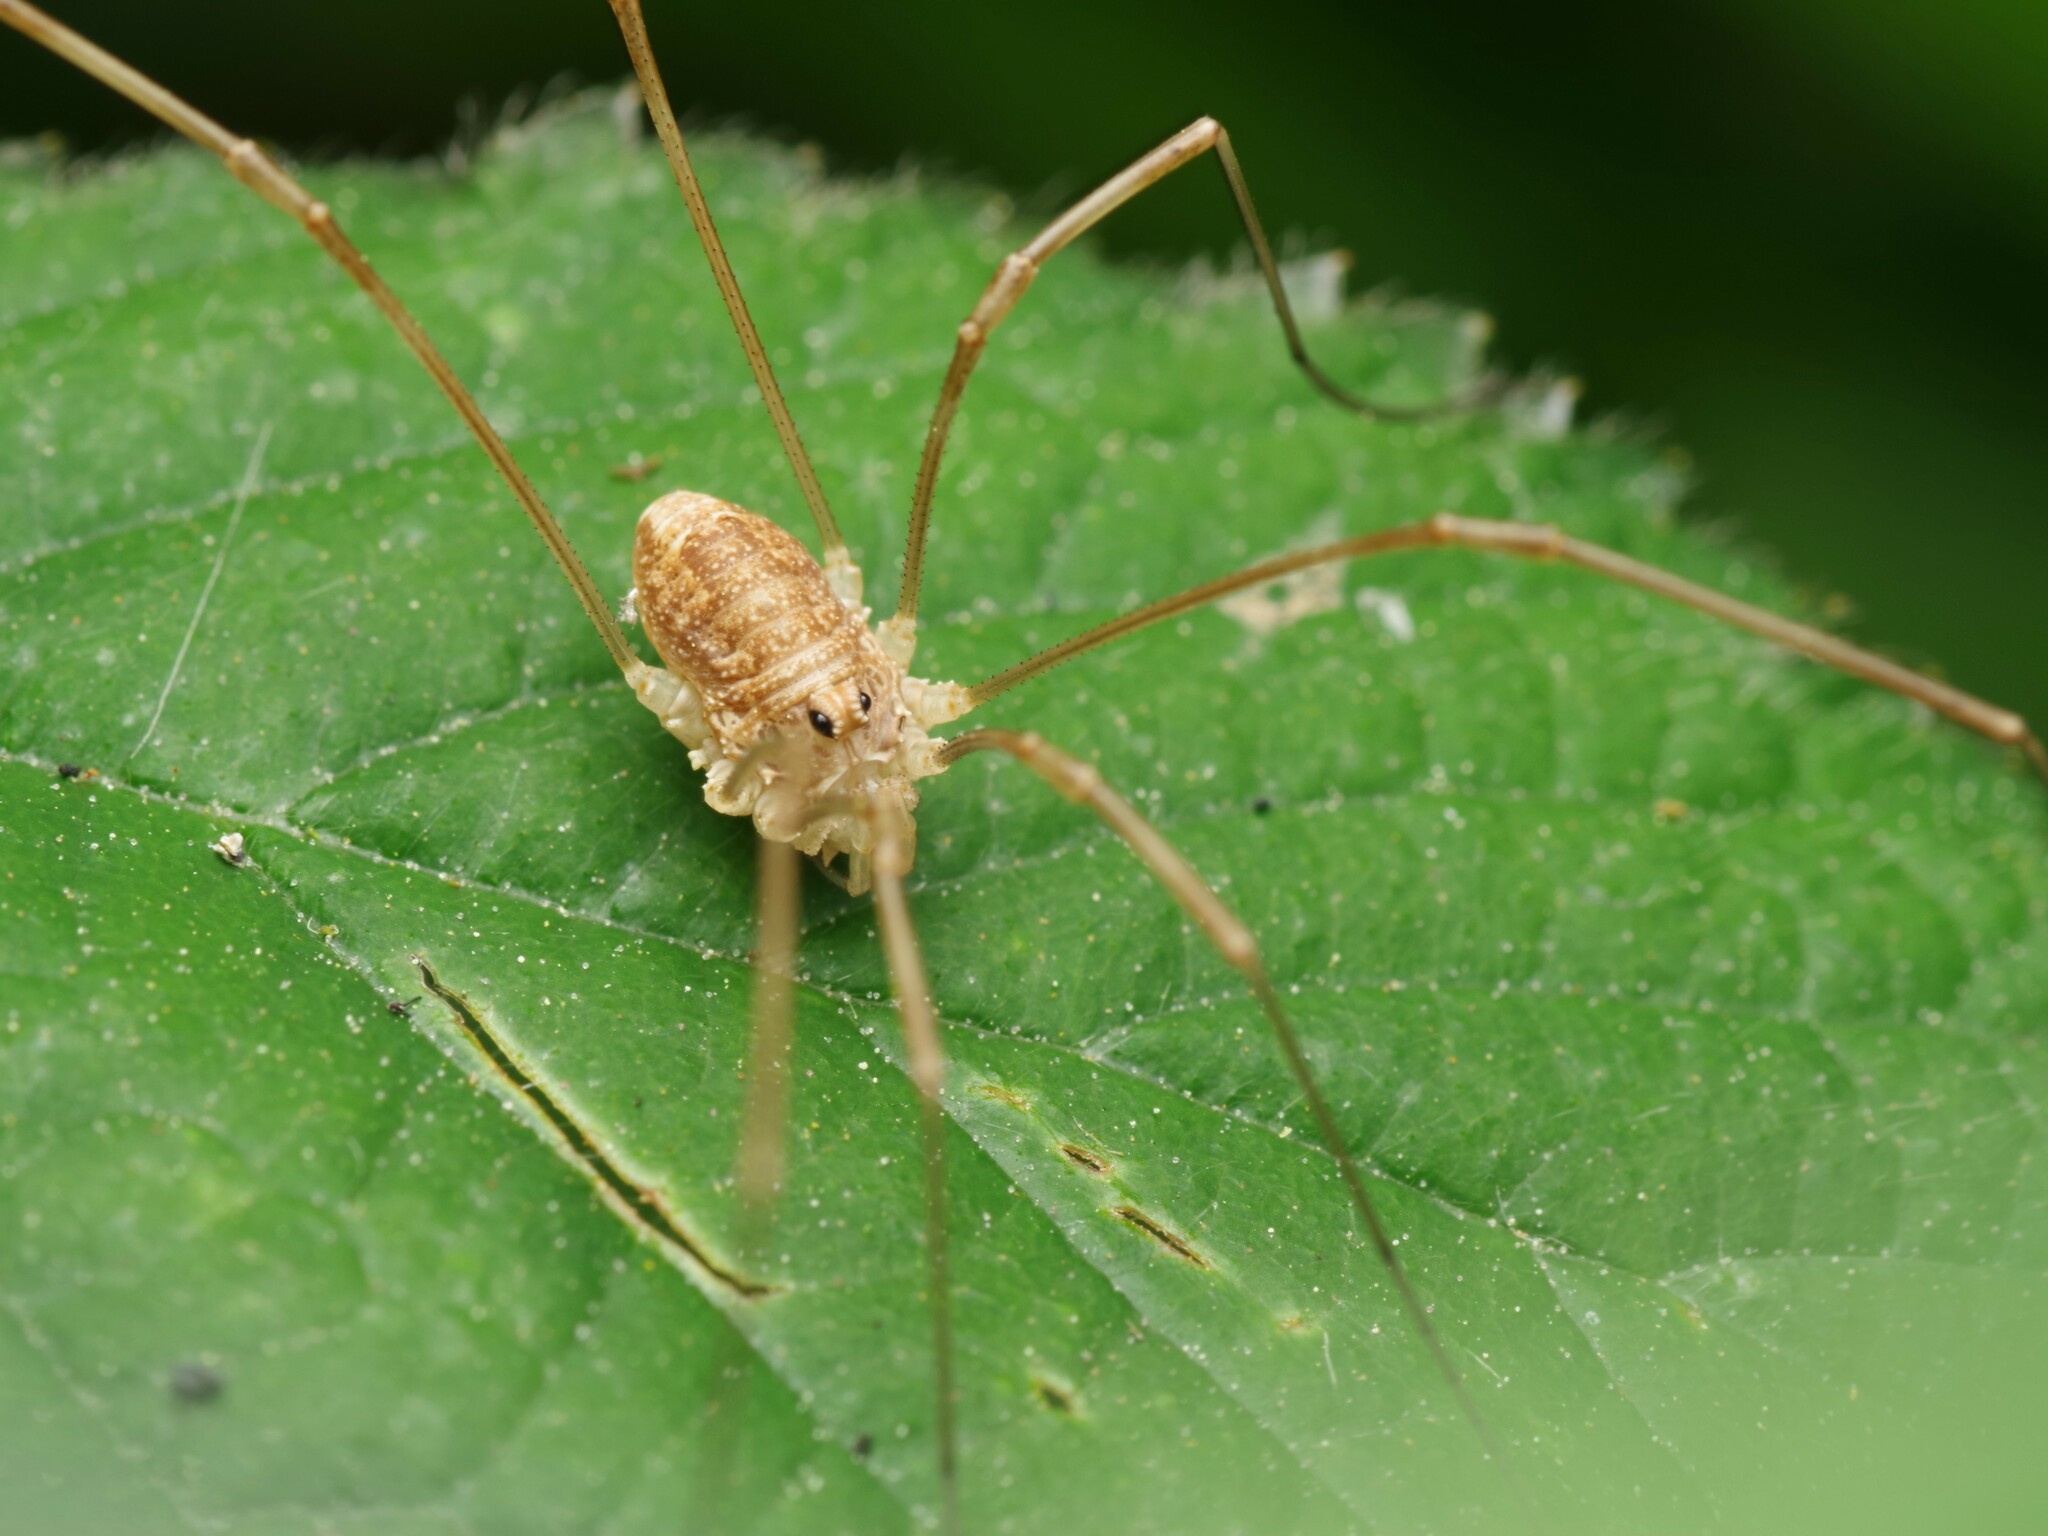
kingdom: Animalia
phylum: Arthropoda
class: Arachnida
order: Opiliones
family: Phalangiidae
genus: Rilaena
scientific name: Rilaena triangularis
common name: Spring harvestman
